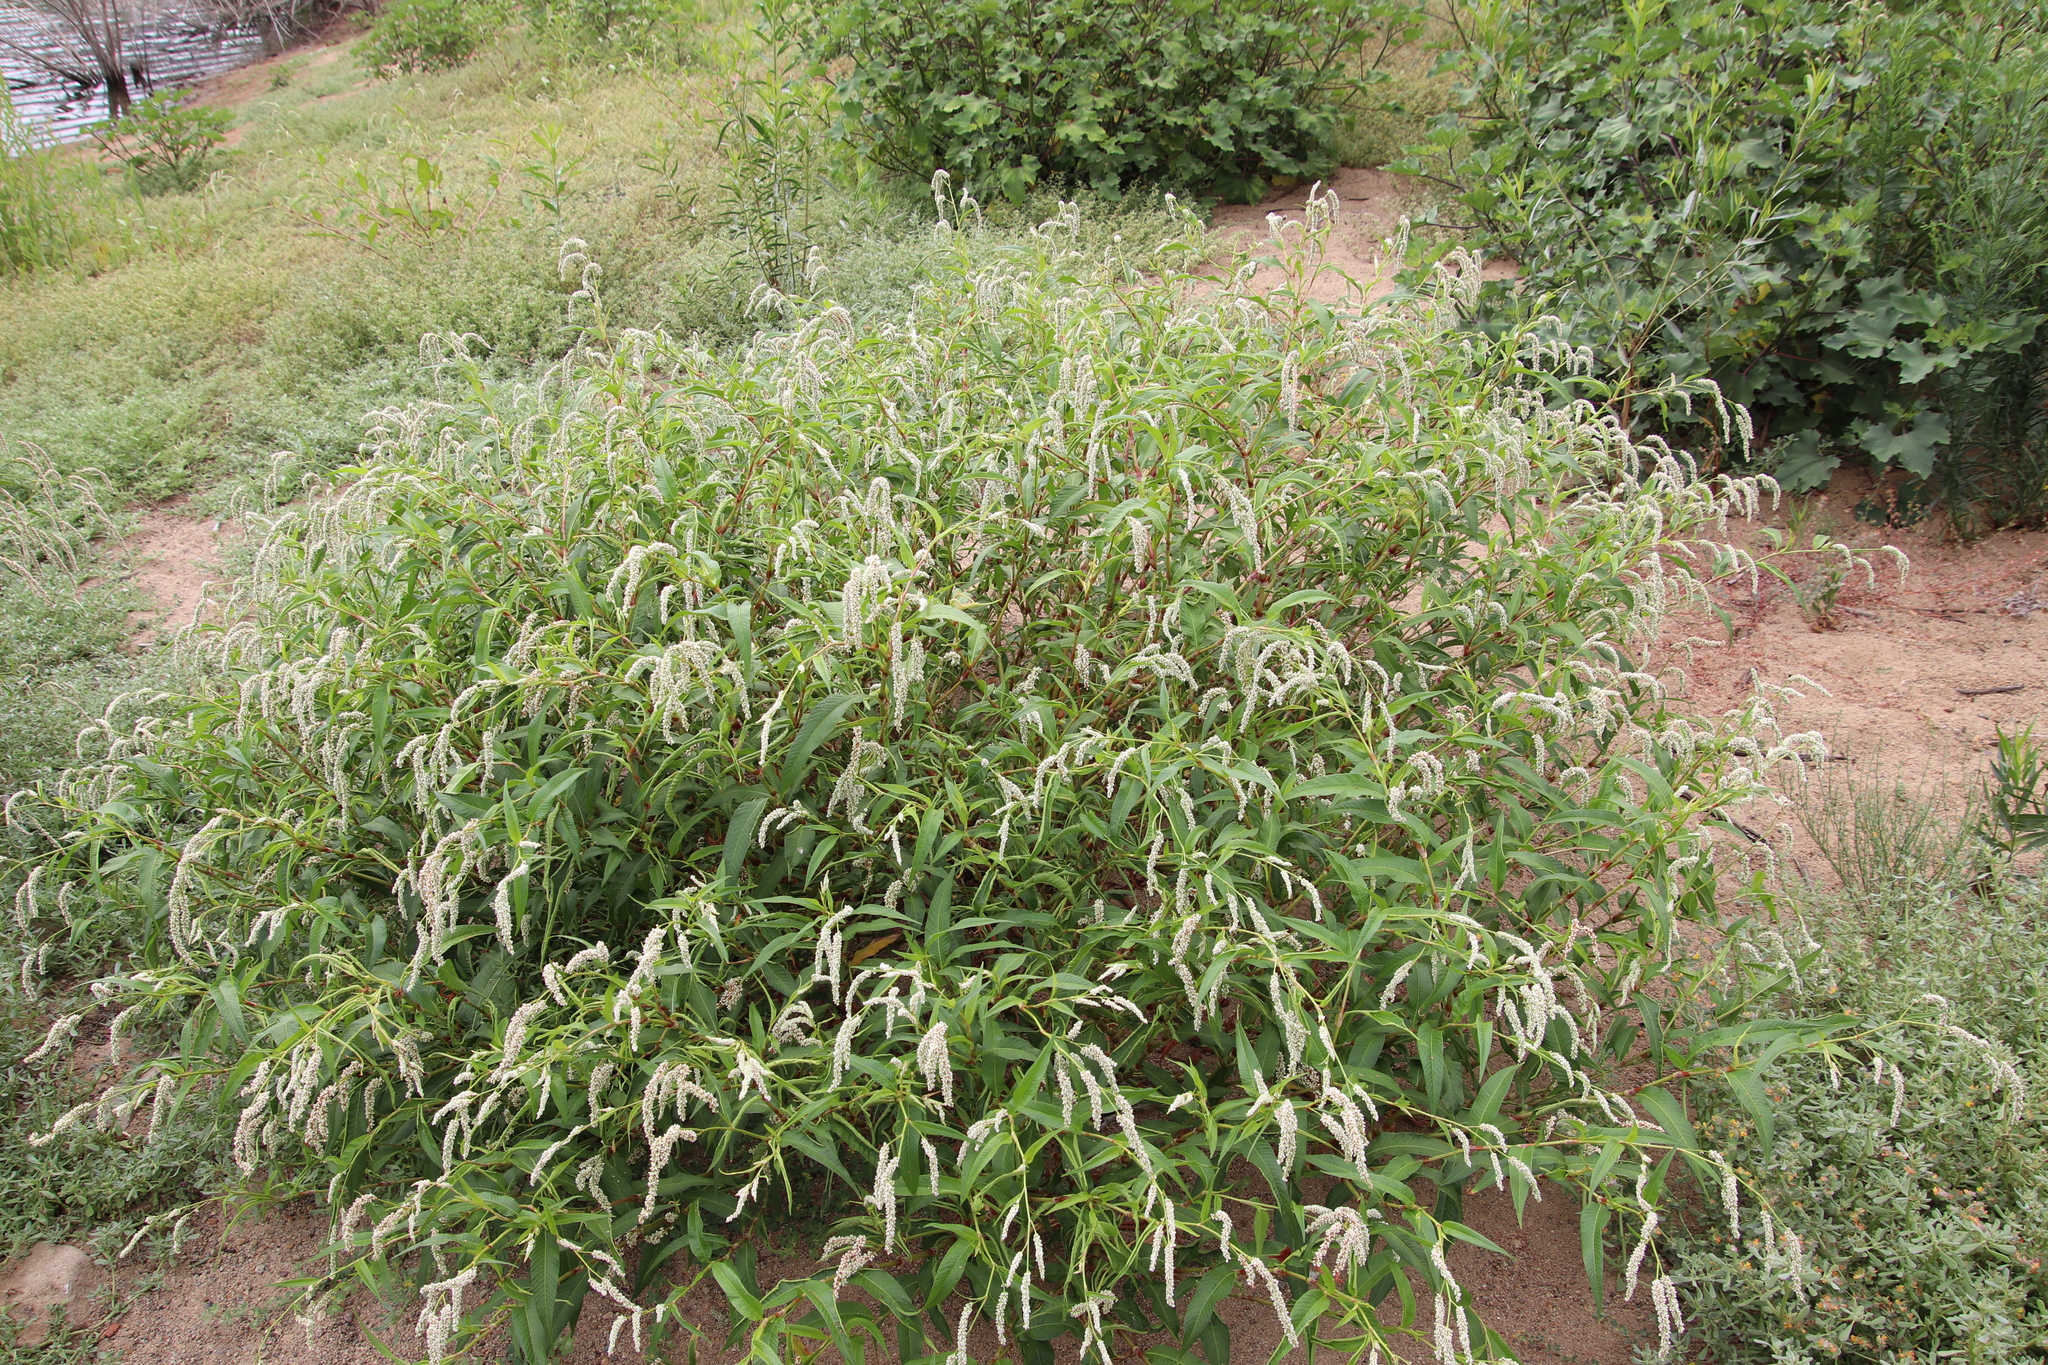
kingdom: Plantae
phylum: Tracheophyta
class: Magnoliopsida
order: Caryophyllales
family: Polygonaceae
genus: Persicaria
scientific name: Persicaria lapathifolia
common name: Curlytop knotweed
